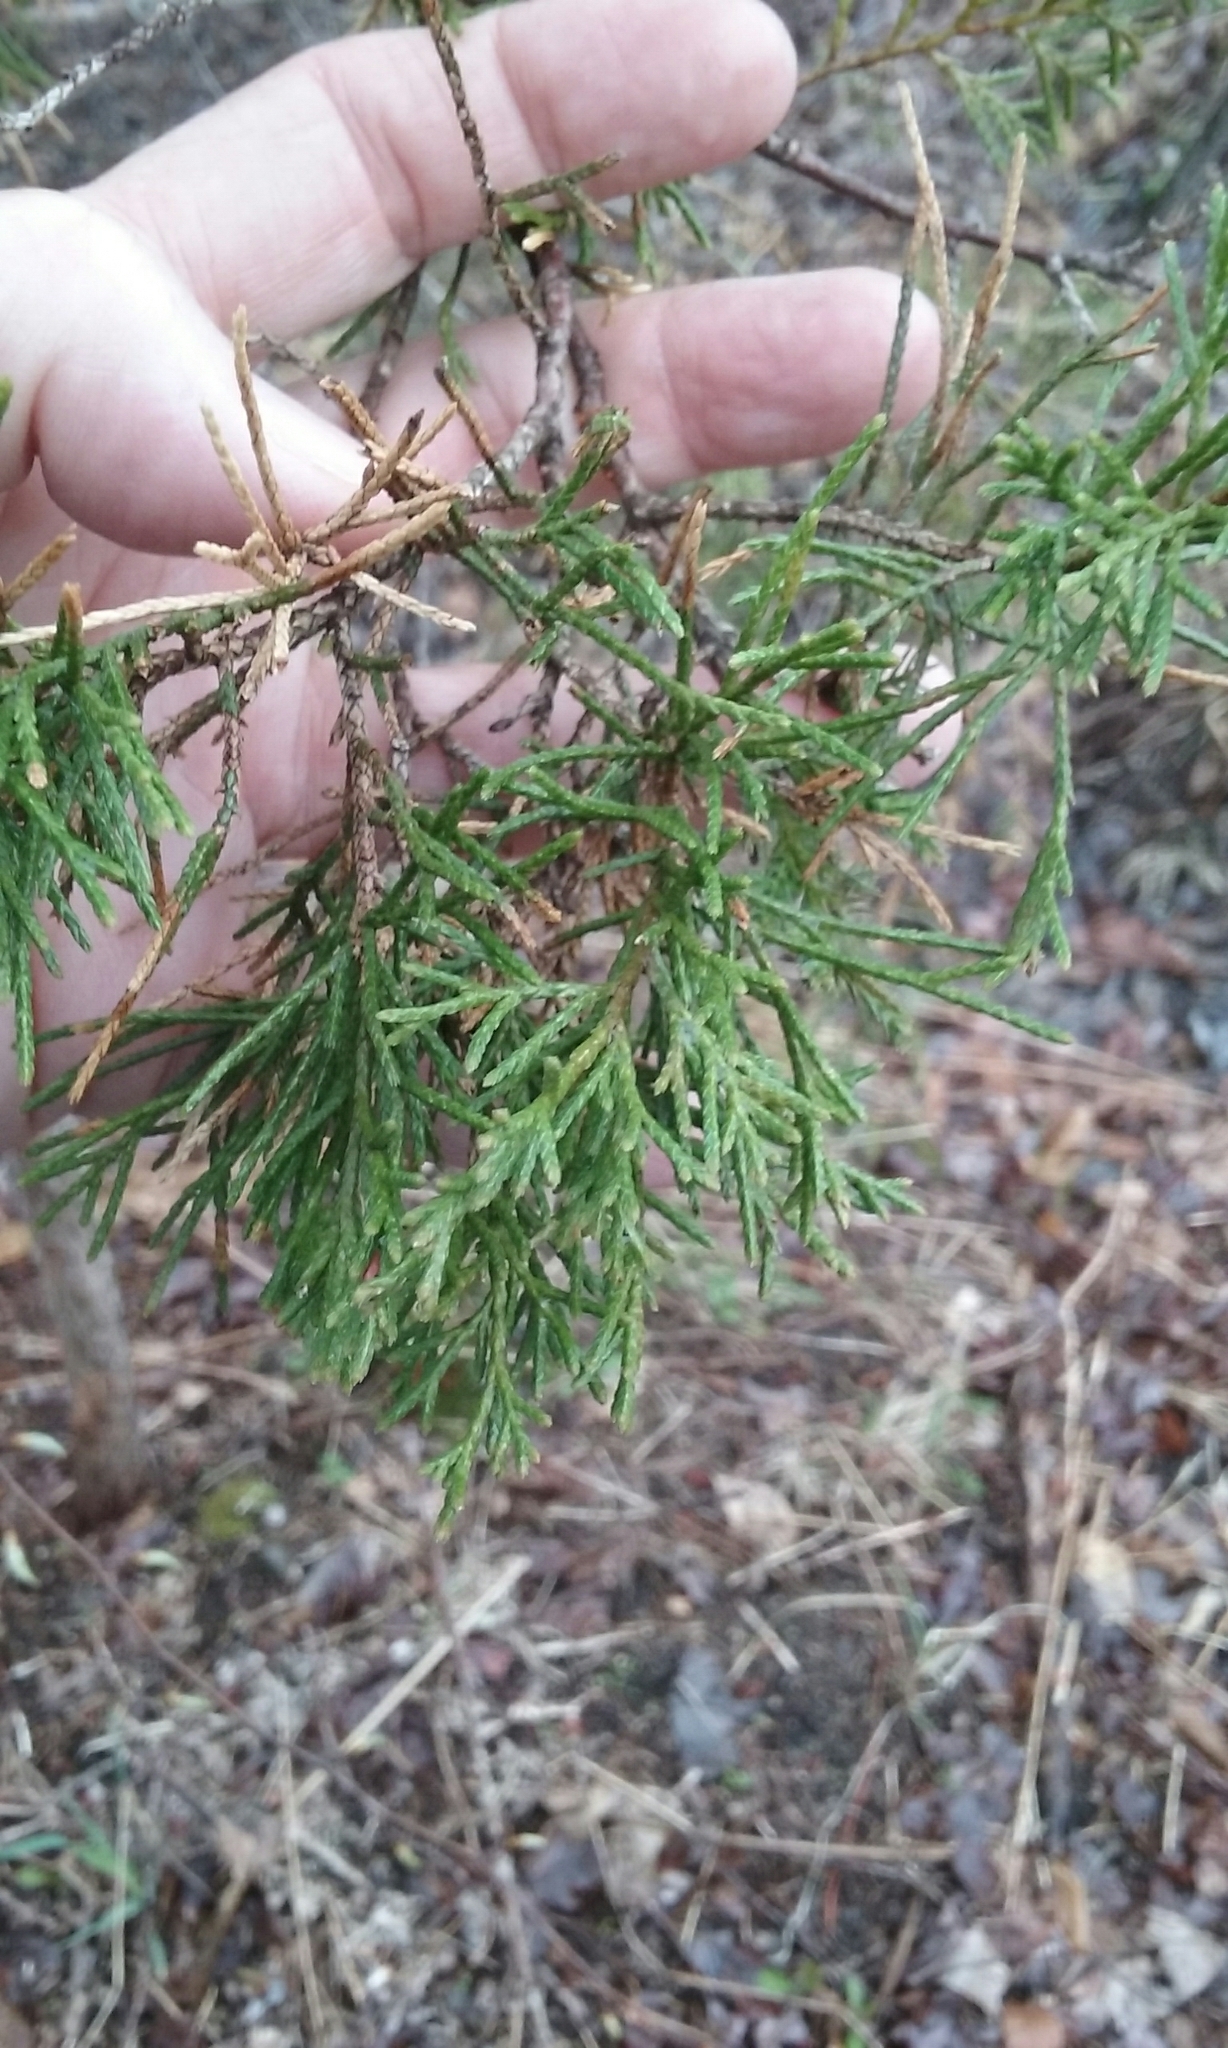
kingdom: Plantae
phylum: Tracheophyta
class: Pinopsida
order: Pinales
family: Cupressaceae
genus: Juniperus
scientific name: Juniperus virginiana
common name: Red juniper
